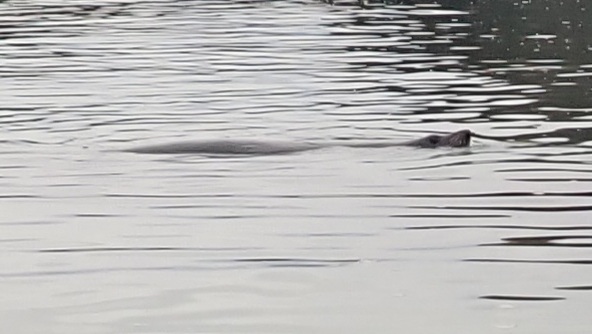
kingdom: Animalia
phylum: Chordata
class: Mammalia
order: Carnivora
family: Otariidae
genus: Arctocephalus
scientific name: Arctocephalus forsteri
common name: New zealand fur seal
